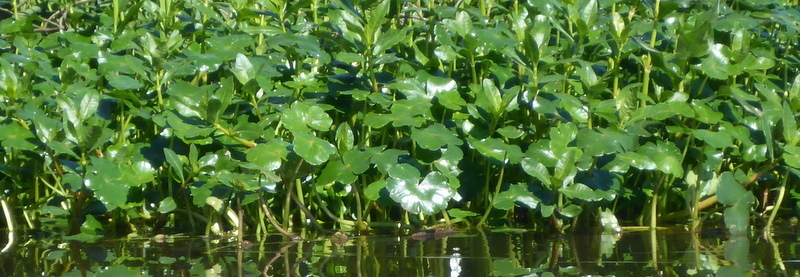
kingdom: Plantae
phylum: Tracheophyta
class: Magnoliopsida
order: Apiales
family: Araliaceae
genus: Hydrocotyle
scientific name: Hydrocotyle ranunculoides
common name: Floating pennywort
